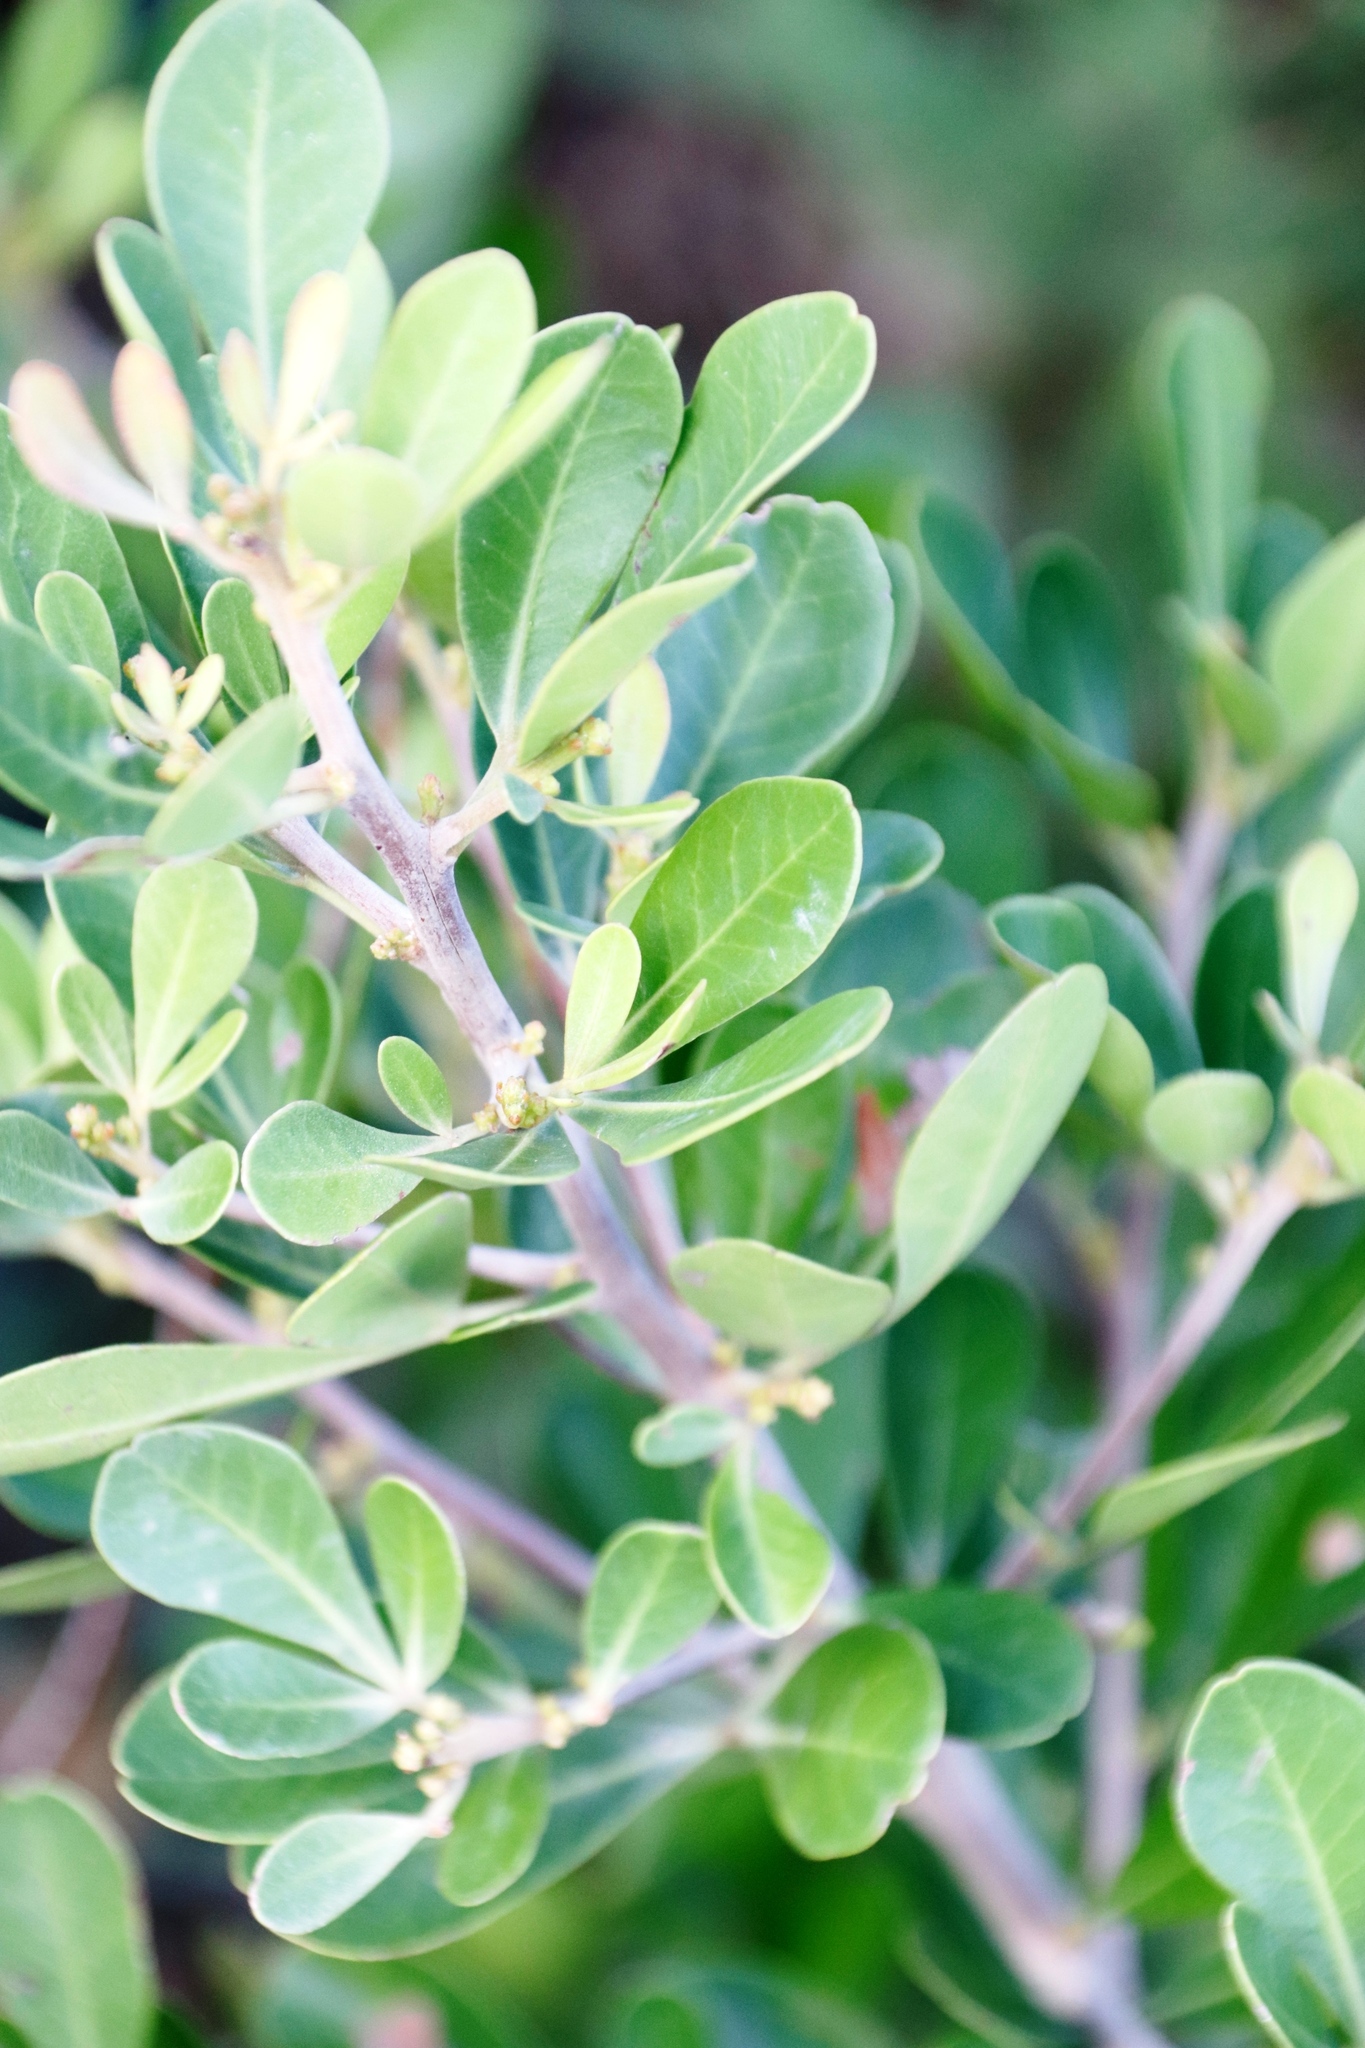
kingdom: Plantae
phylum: Tracheophyta
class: Magnoliopsida
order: Sapindales
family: Anacardiaceae
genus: Searsia
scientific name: Searsia lucida
